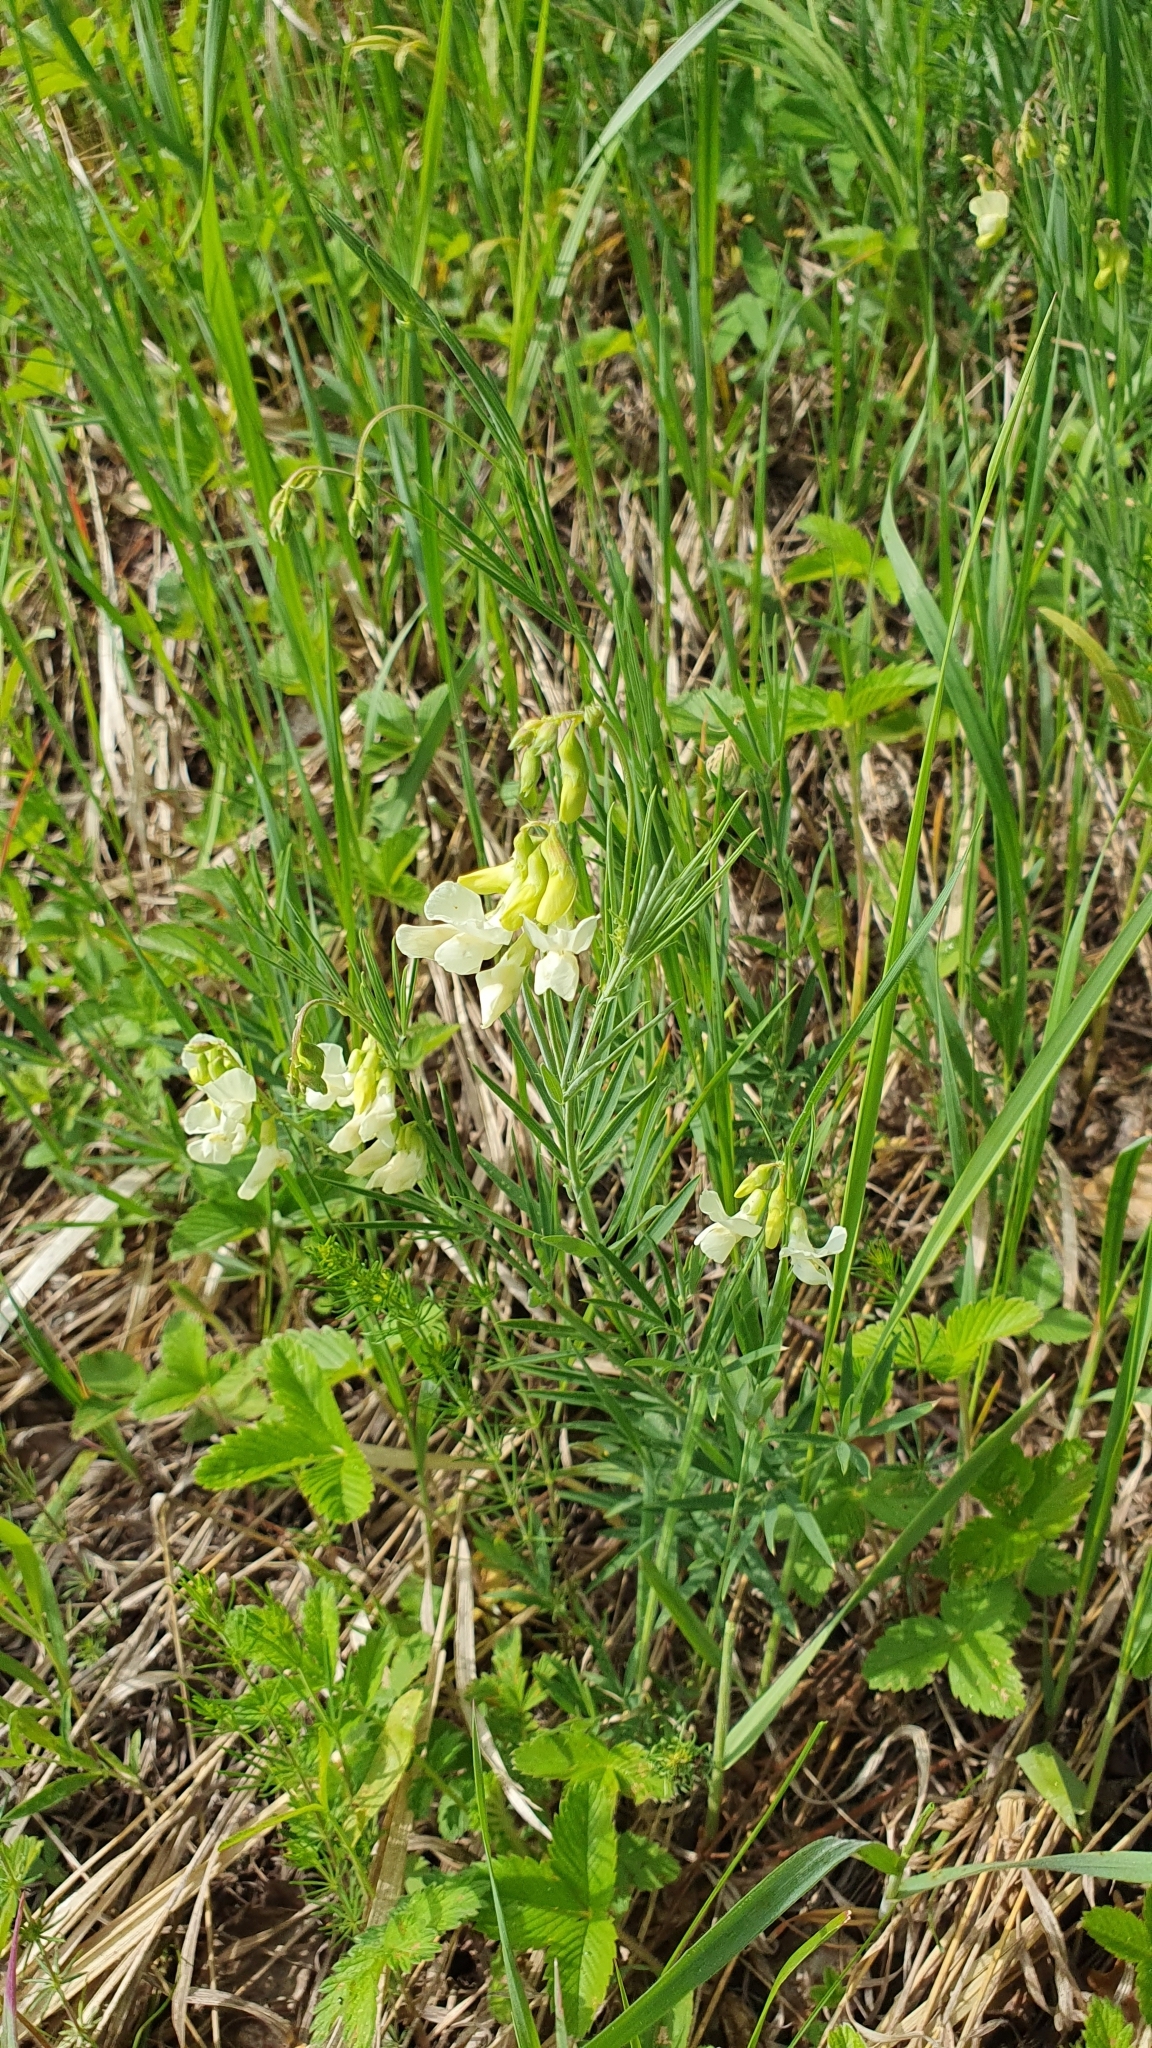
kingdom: Plantae
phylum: Tracheophyta
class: Magnoliopsida
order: Fabales
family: Fabaceae
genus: Lathyrus
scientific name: Lathyrus pallescens
